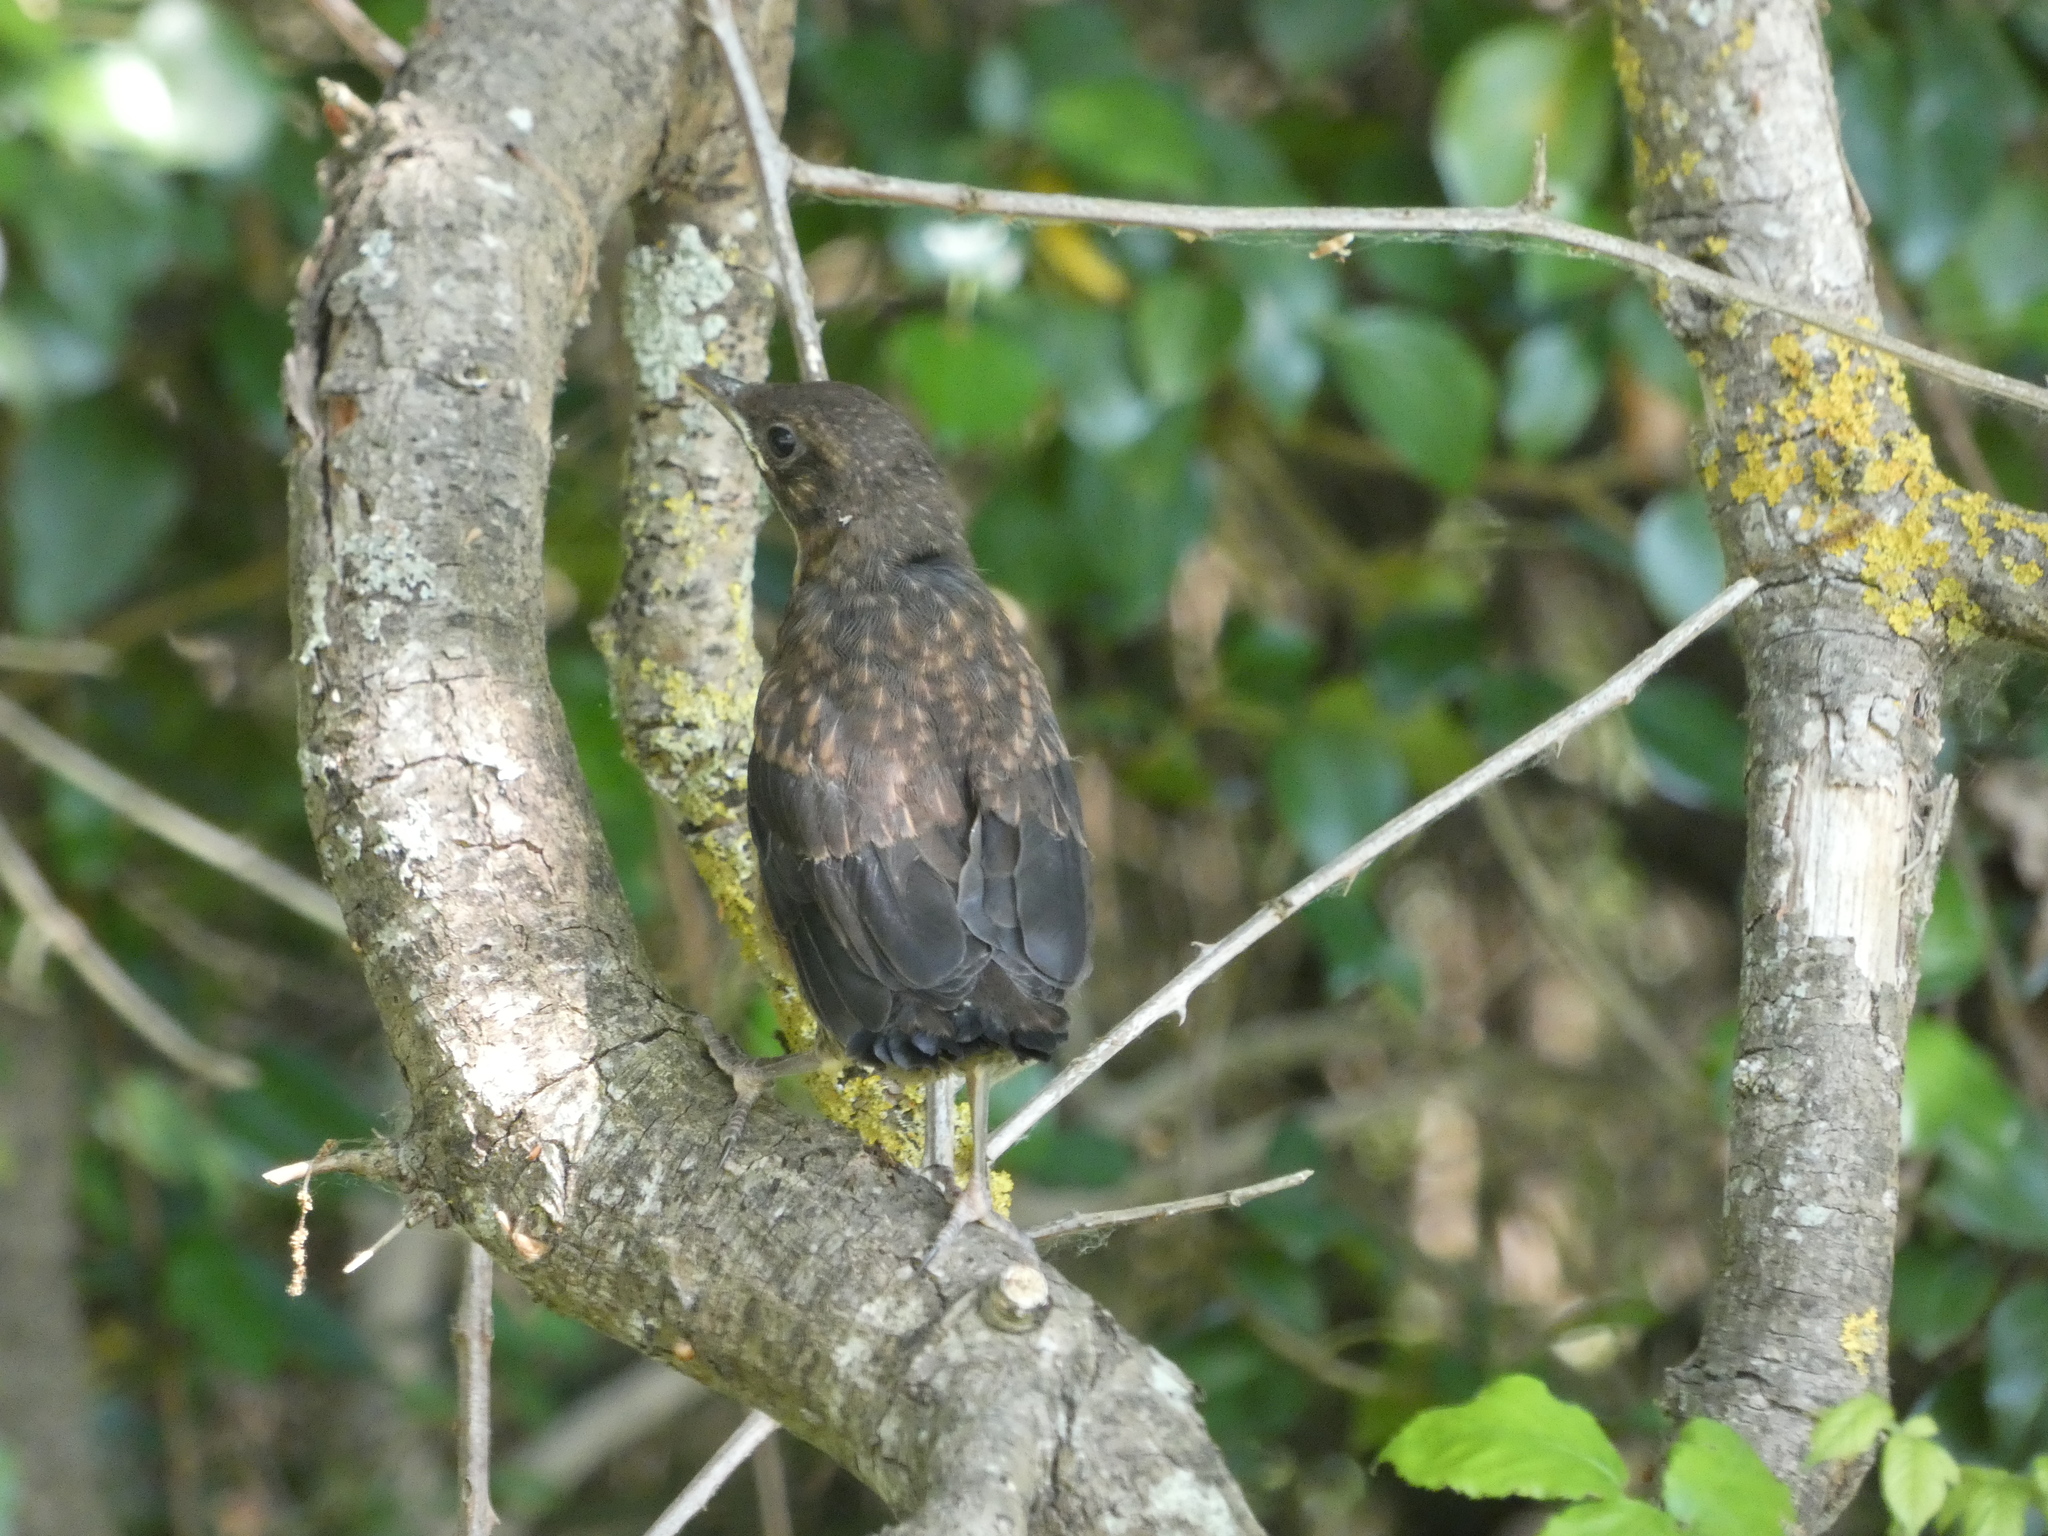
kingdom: Animalia
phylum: Chordata
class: Aves
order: Passeriformes
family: Turdidae
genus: Turdus
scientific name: Turdus merula
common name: Common blackbird
